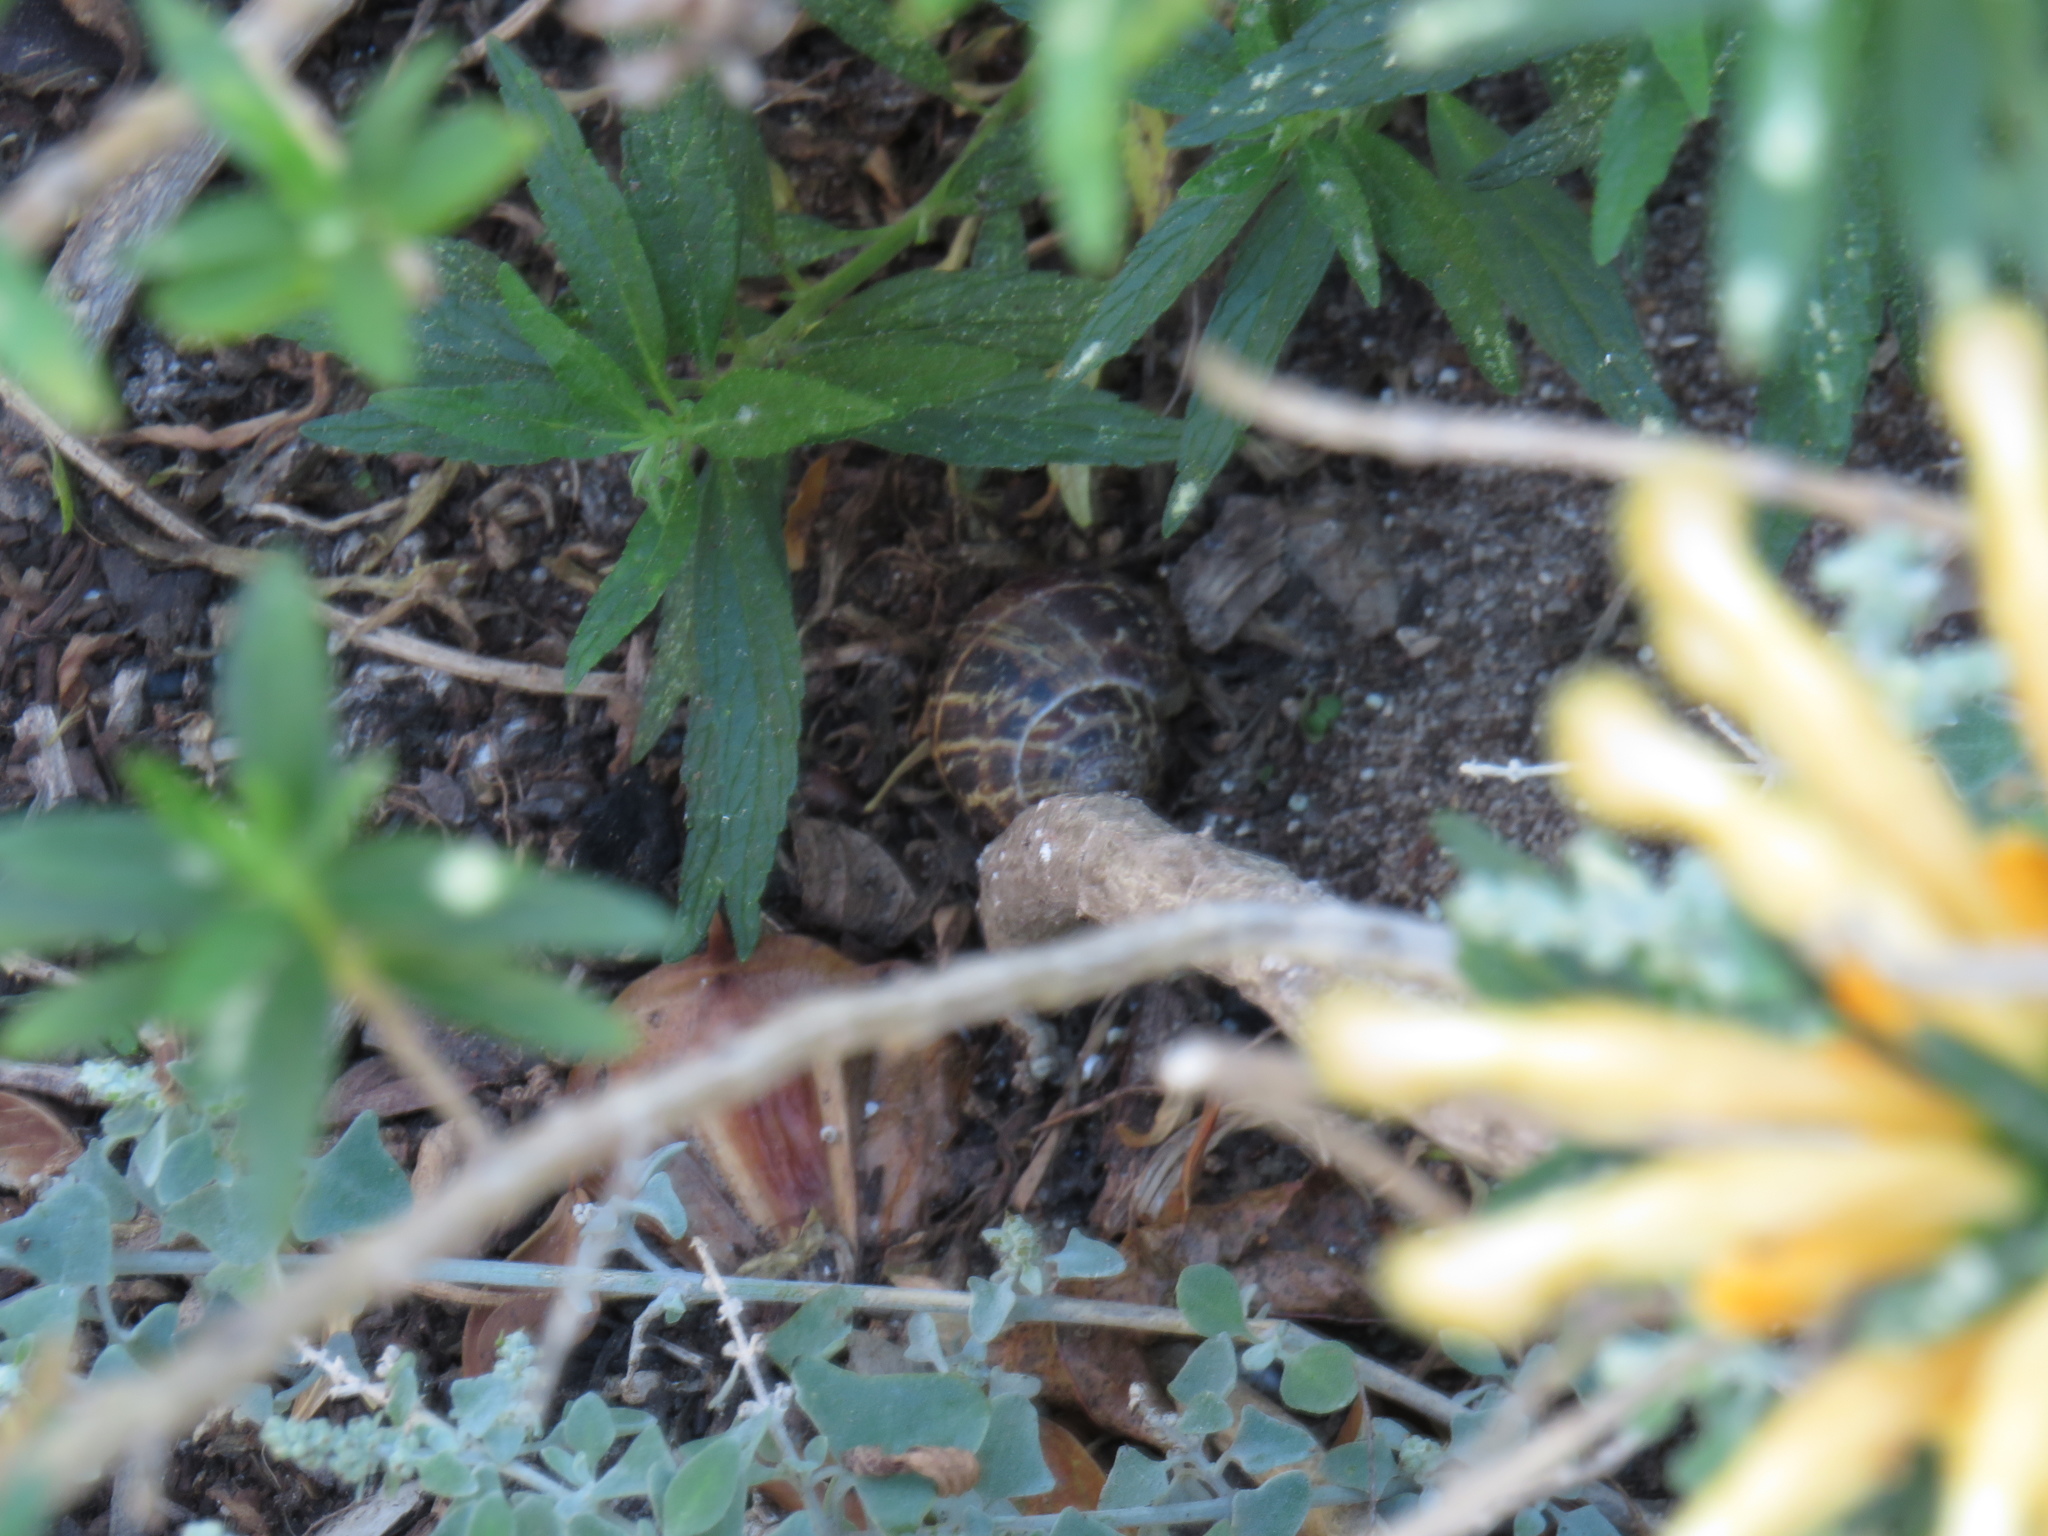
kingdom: Animalia
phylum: Mollusca
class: Gastropoda
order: Stylommatophora
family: Helicidae
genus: Cornu
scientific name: Cornu aspersum
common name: Brown garden snail
